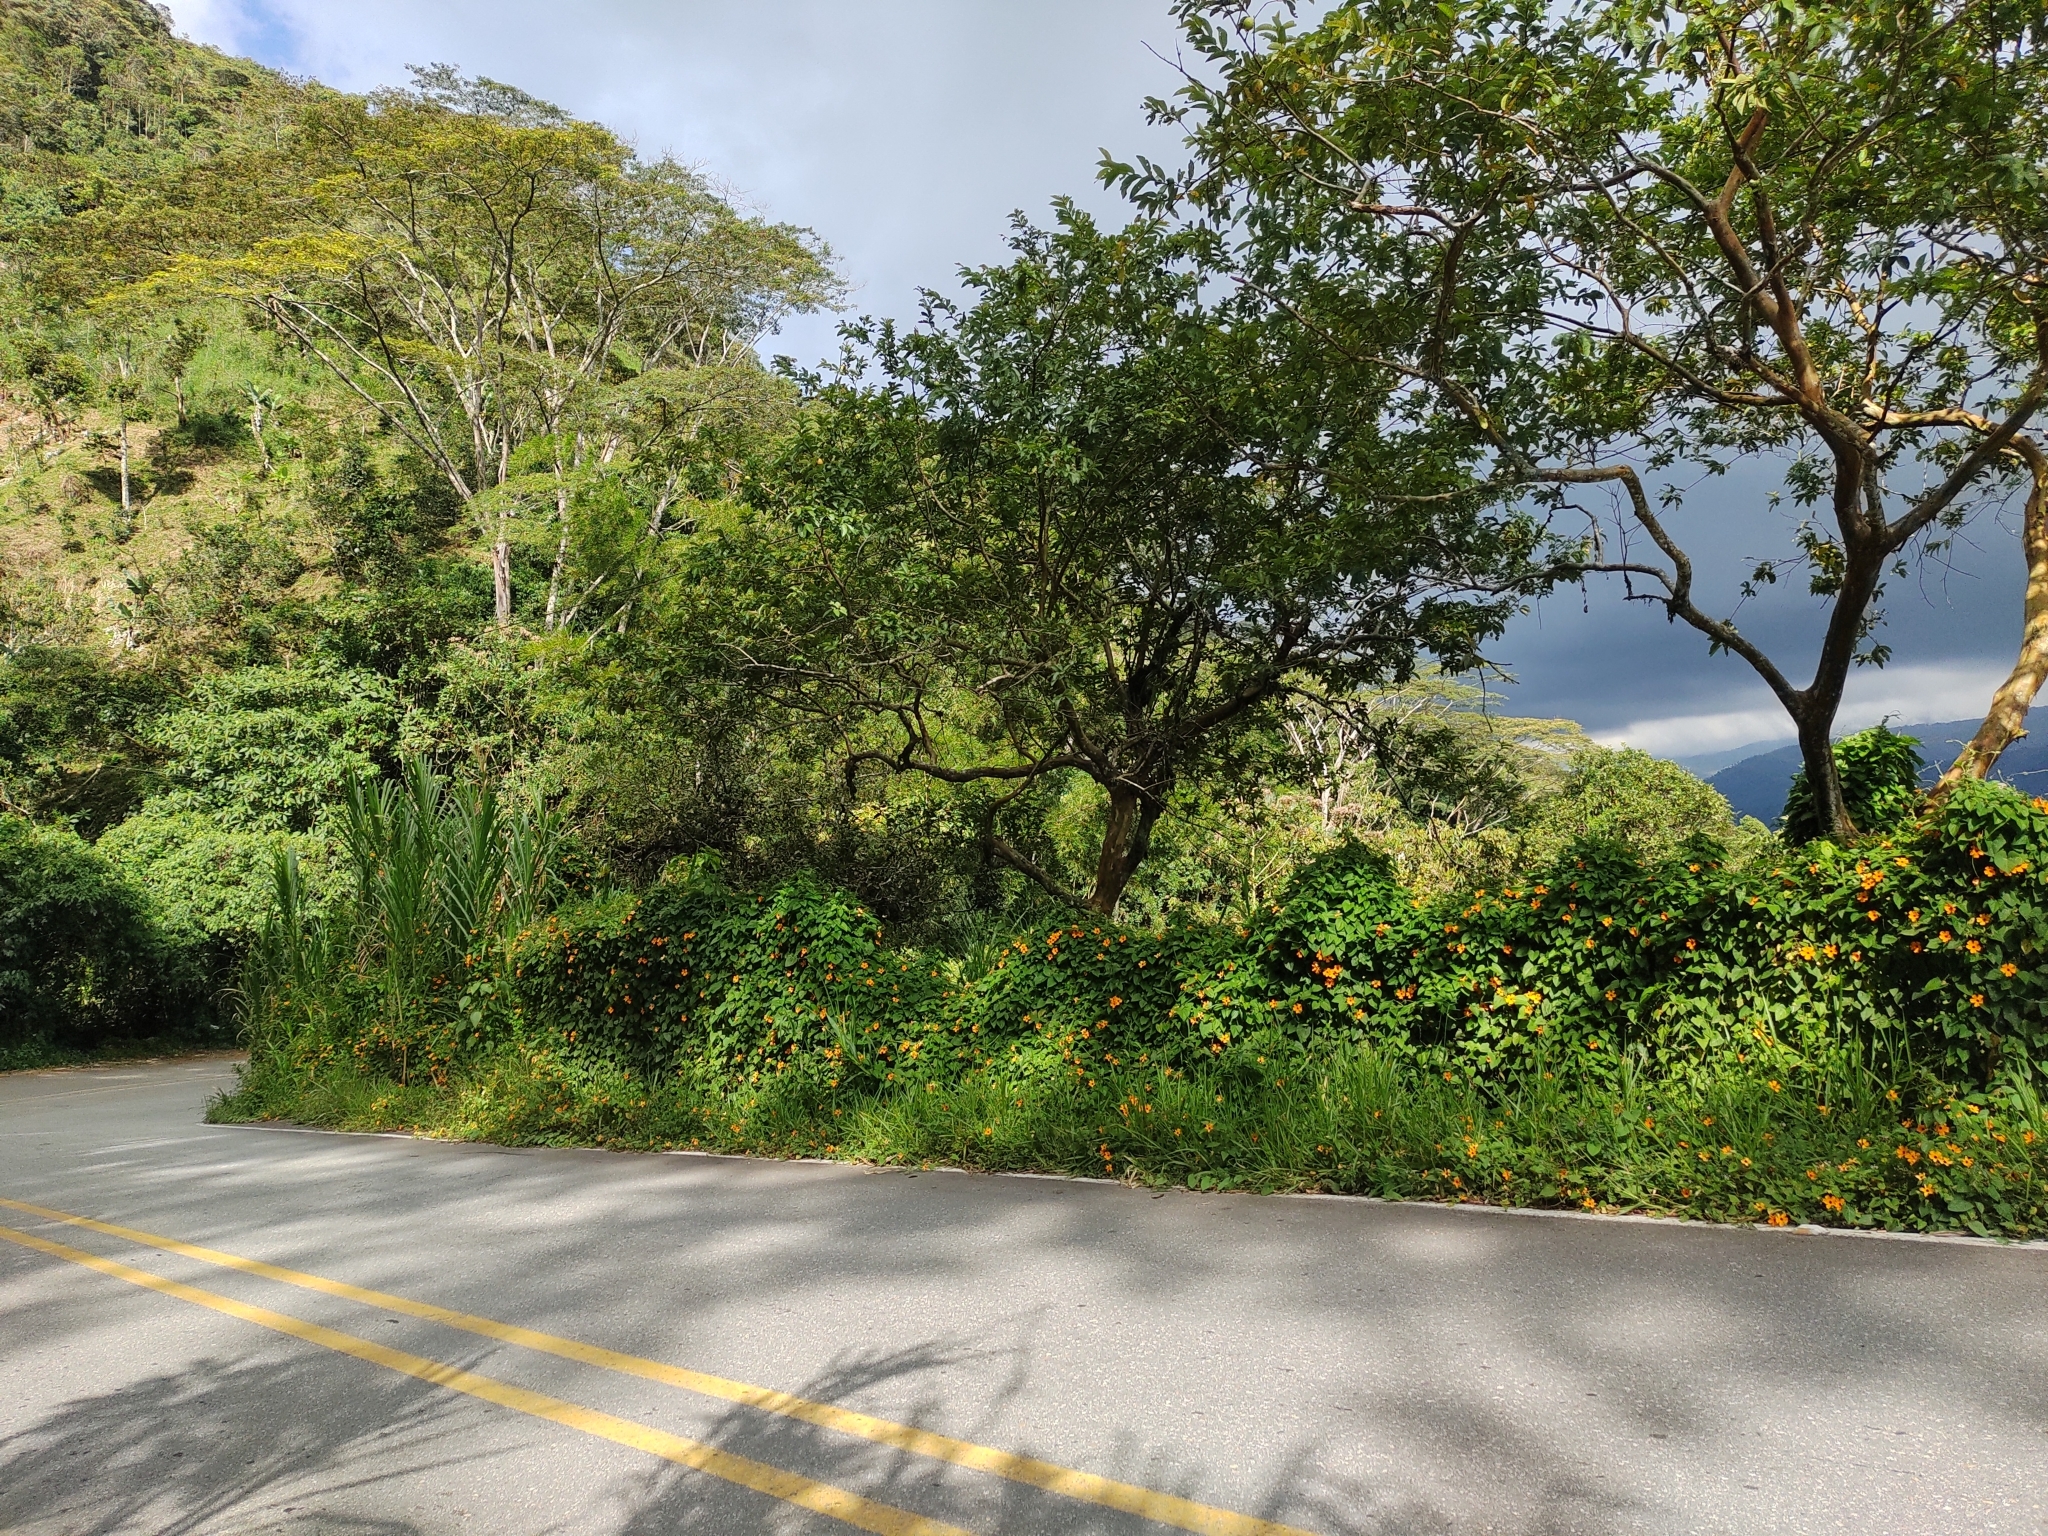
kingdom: Plantae
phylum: Tracheophyta
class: Magnoliopsida
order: Lamiales
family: Acanthaceae
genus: Thunbergia
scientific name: Thunbergia alata
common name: Blackeyed susan vine
